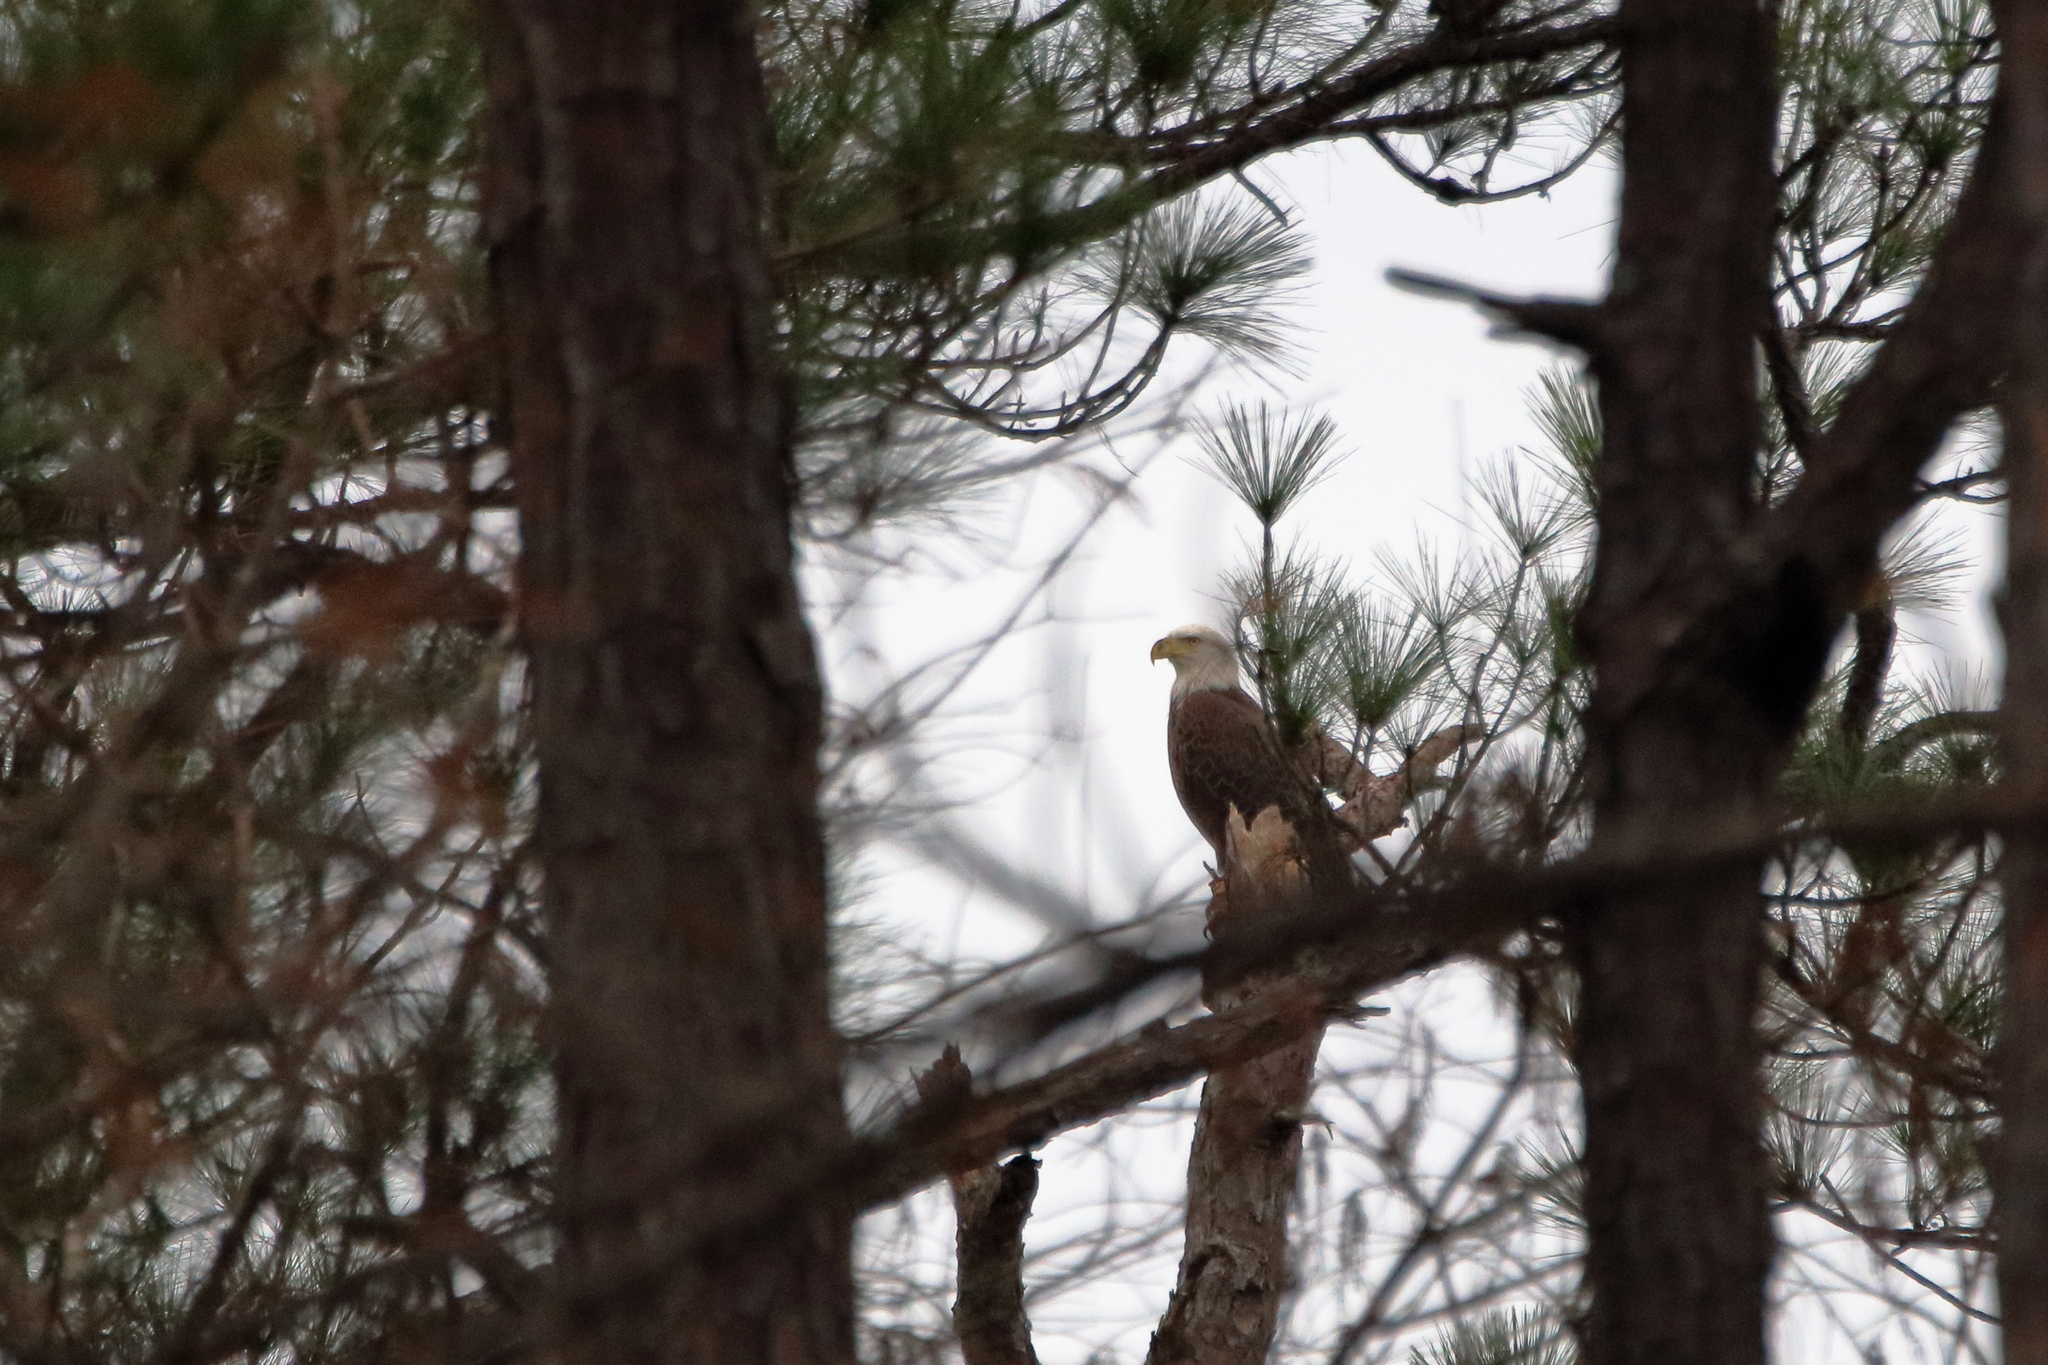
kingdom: Animalia
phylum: Chordata
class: Aves
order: Accipitriformes
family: Accipitridae
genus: Haliaeetus
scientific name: Haliaeetus leucocephalus
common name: Bald eagle
